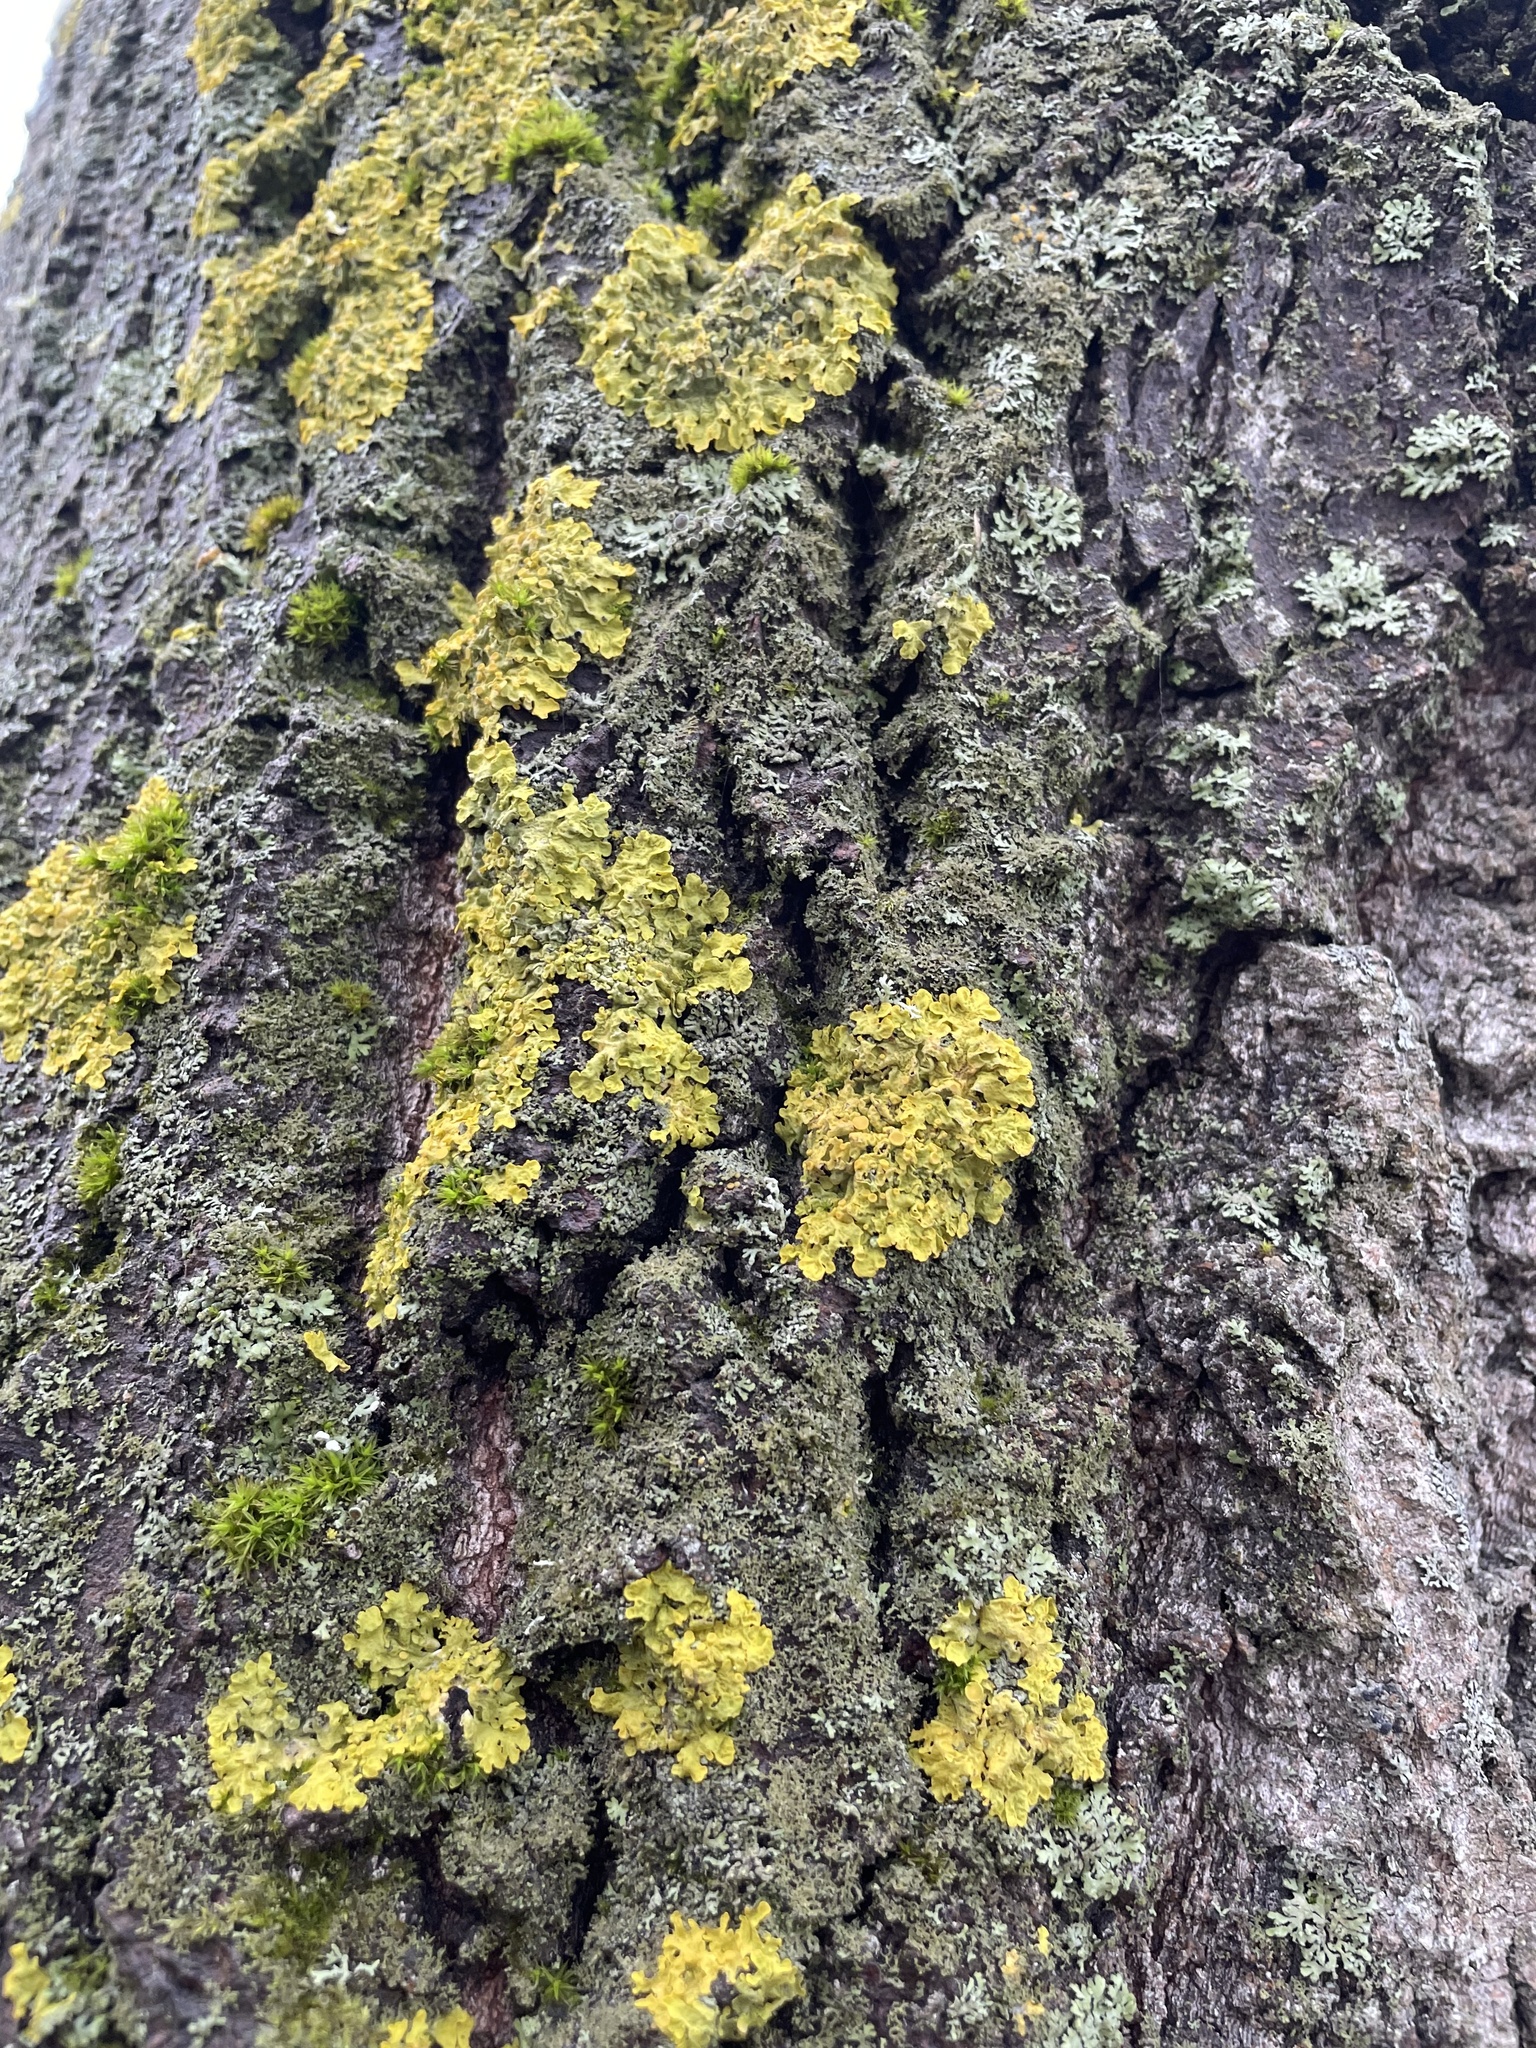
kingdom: Fungi
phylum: Ascomycota
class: Lecanoromycetes
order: Teloschistales
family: Teloschistaceae
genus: Xanthoria
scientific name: Xanthoria parietina
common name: Common orange lichen
